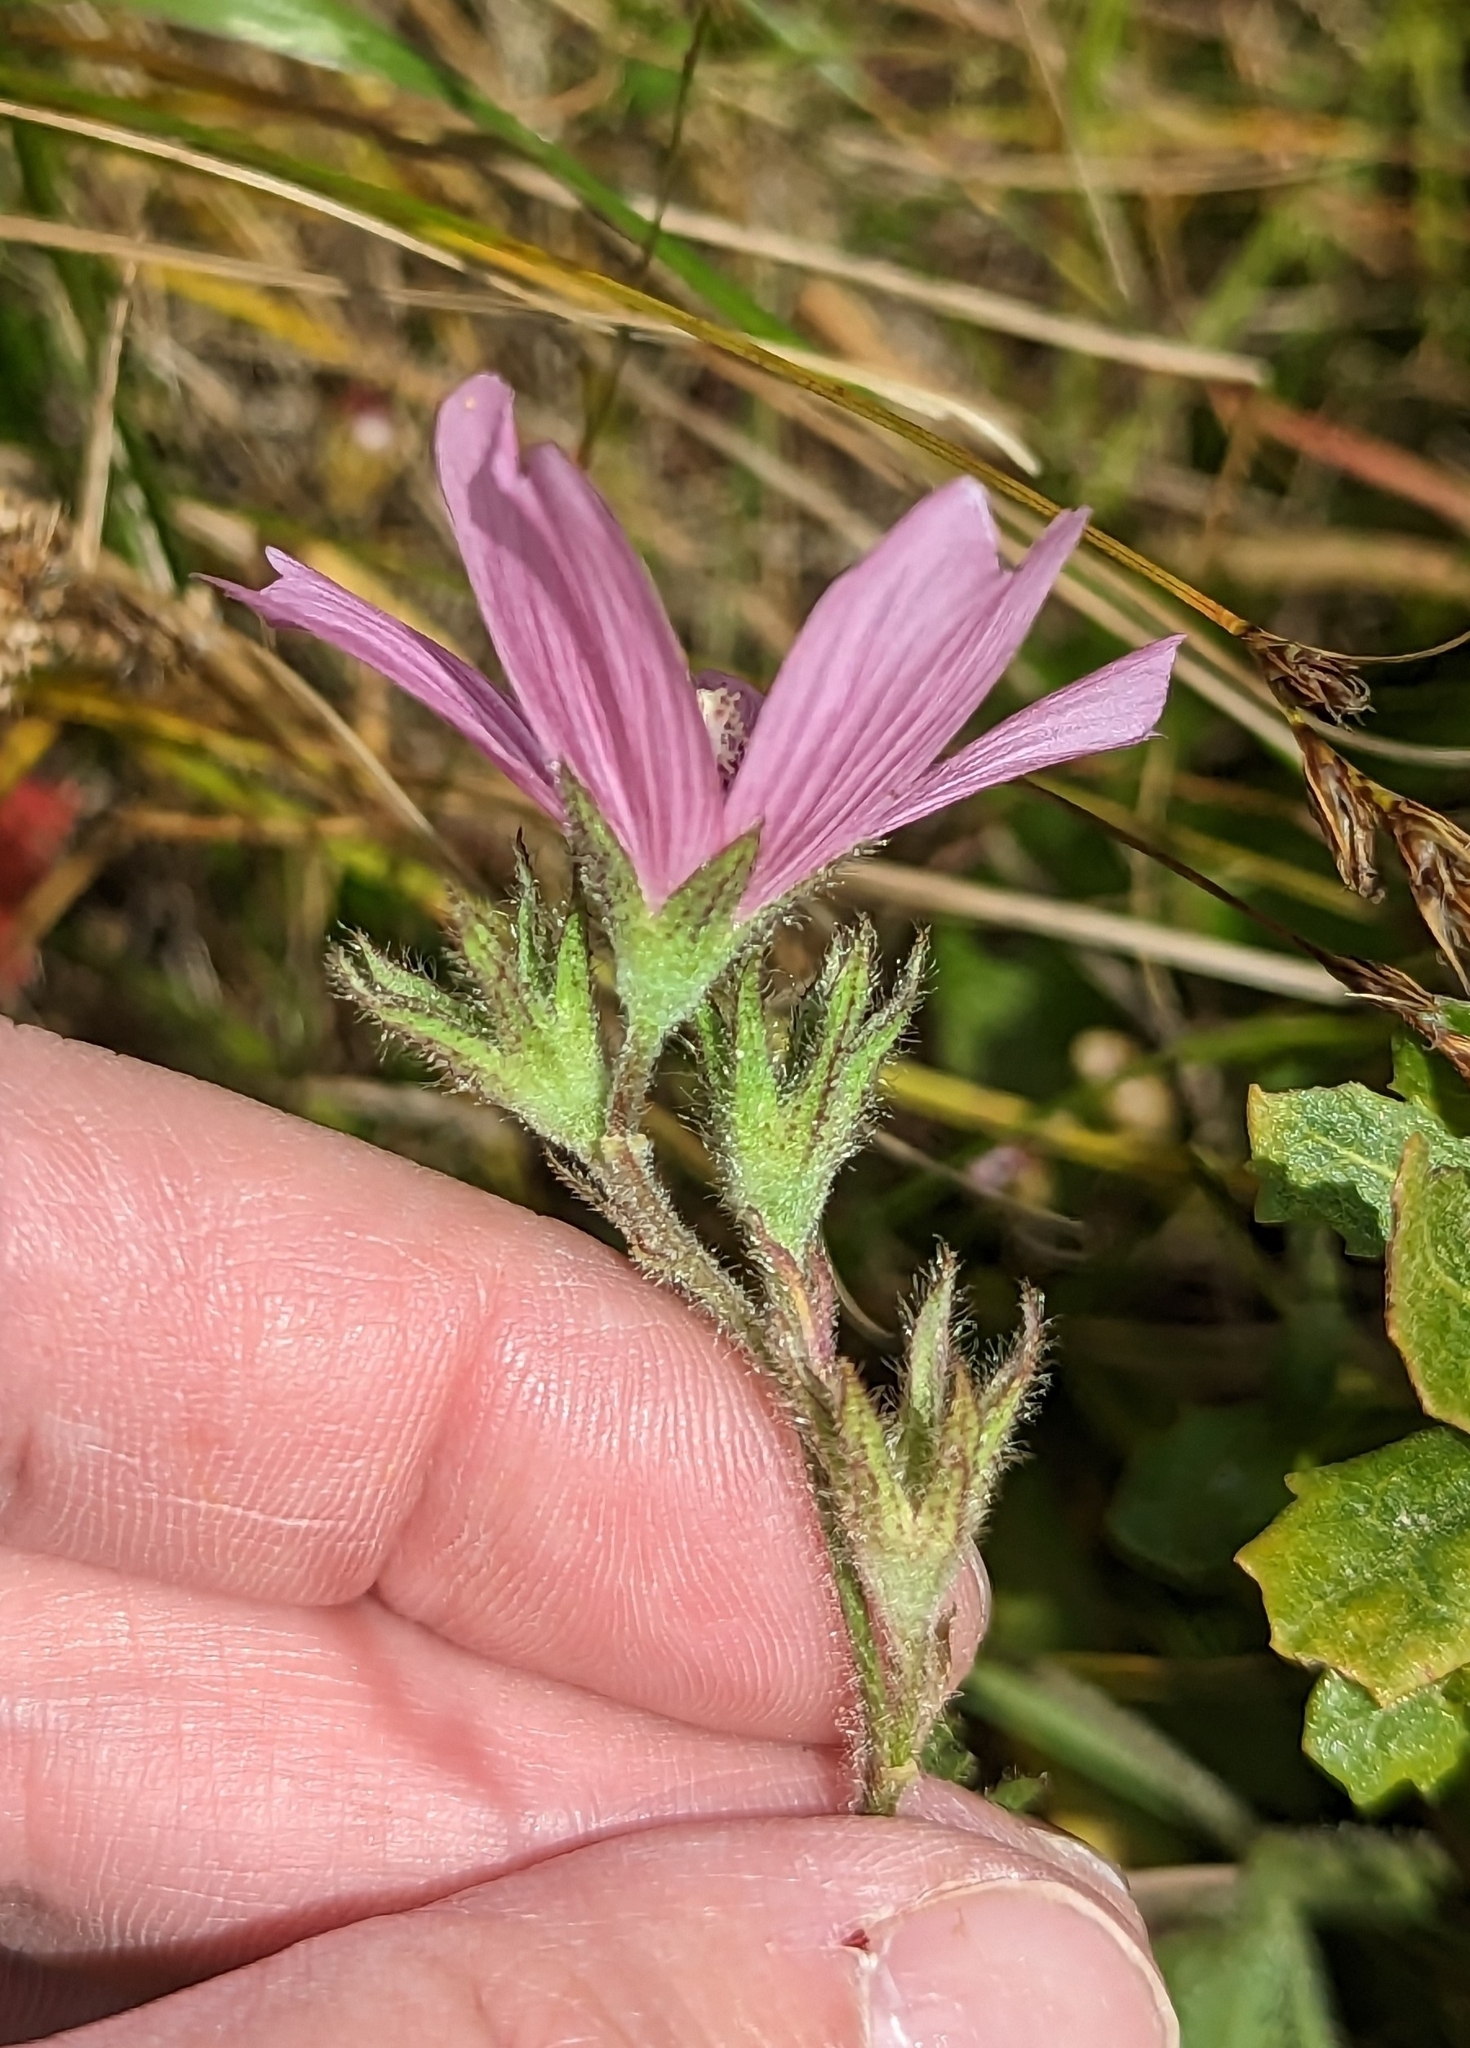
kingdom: Plantae
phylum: Tracheophyta
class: Magnoliopsida
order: Malvales
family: Malvaceae
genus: Sidalcea
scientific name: Sidalcea malviflora
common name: Greek mallow
